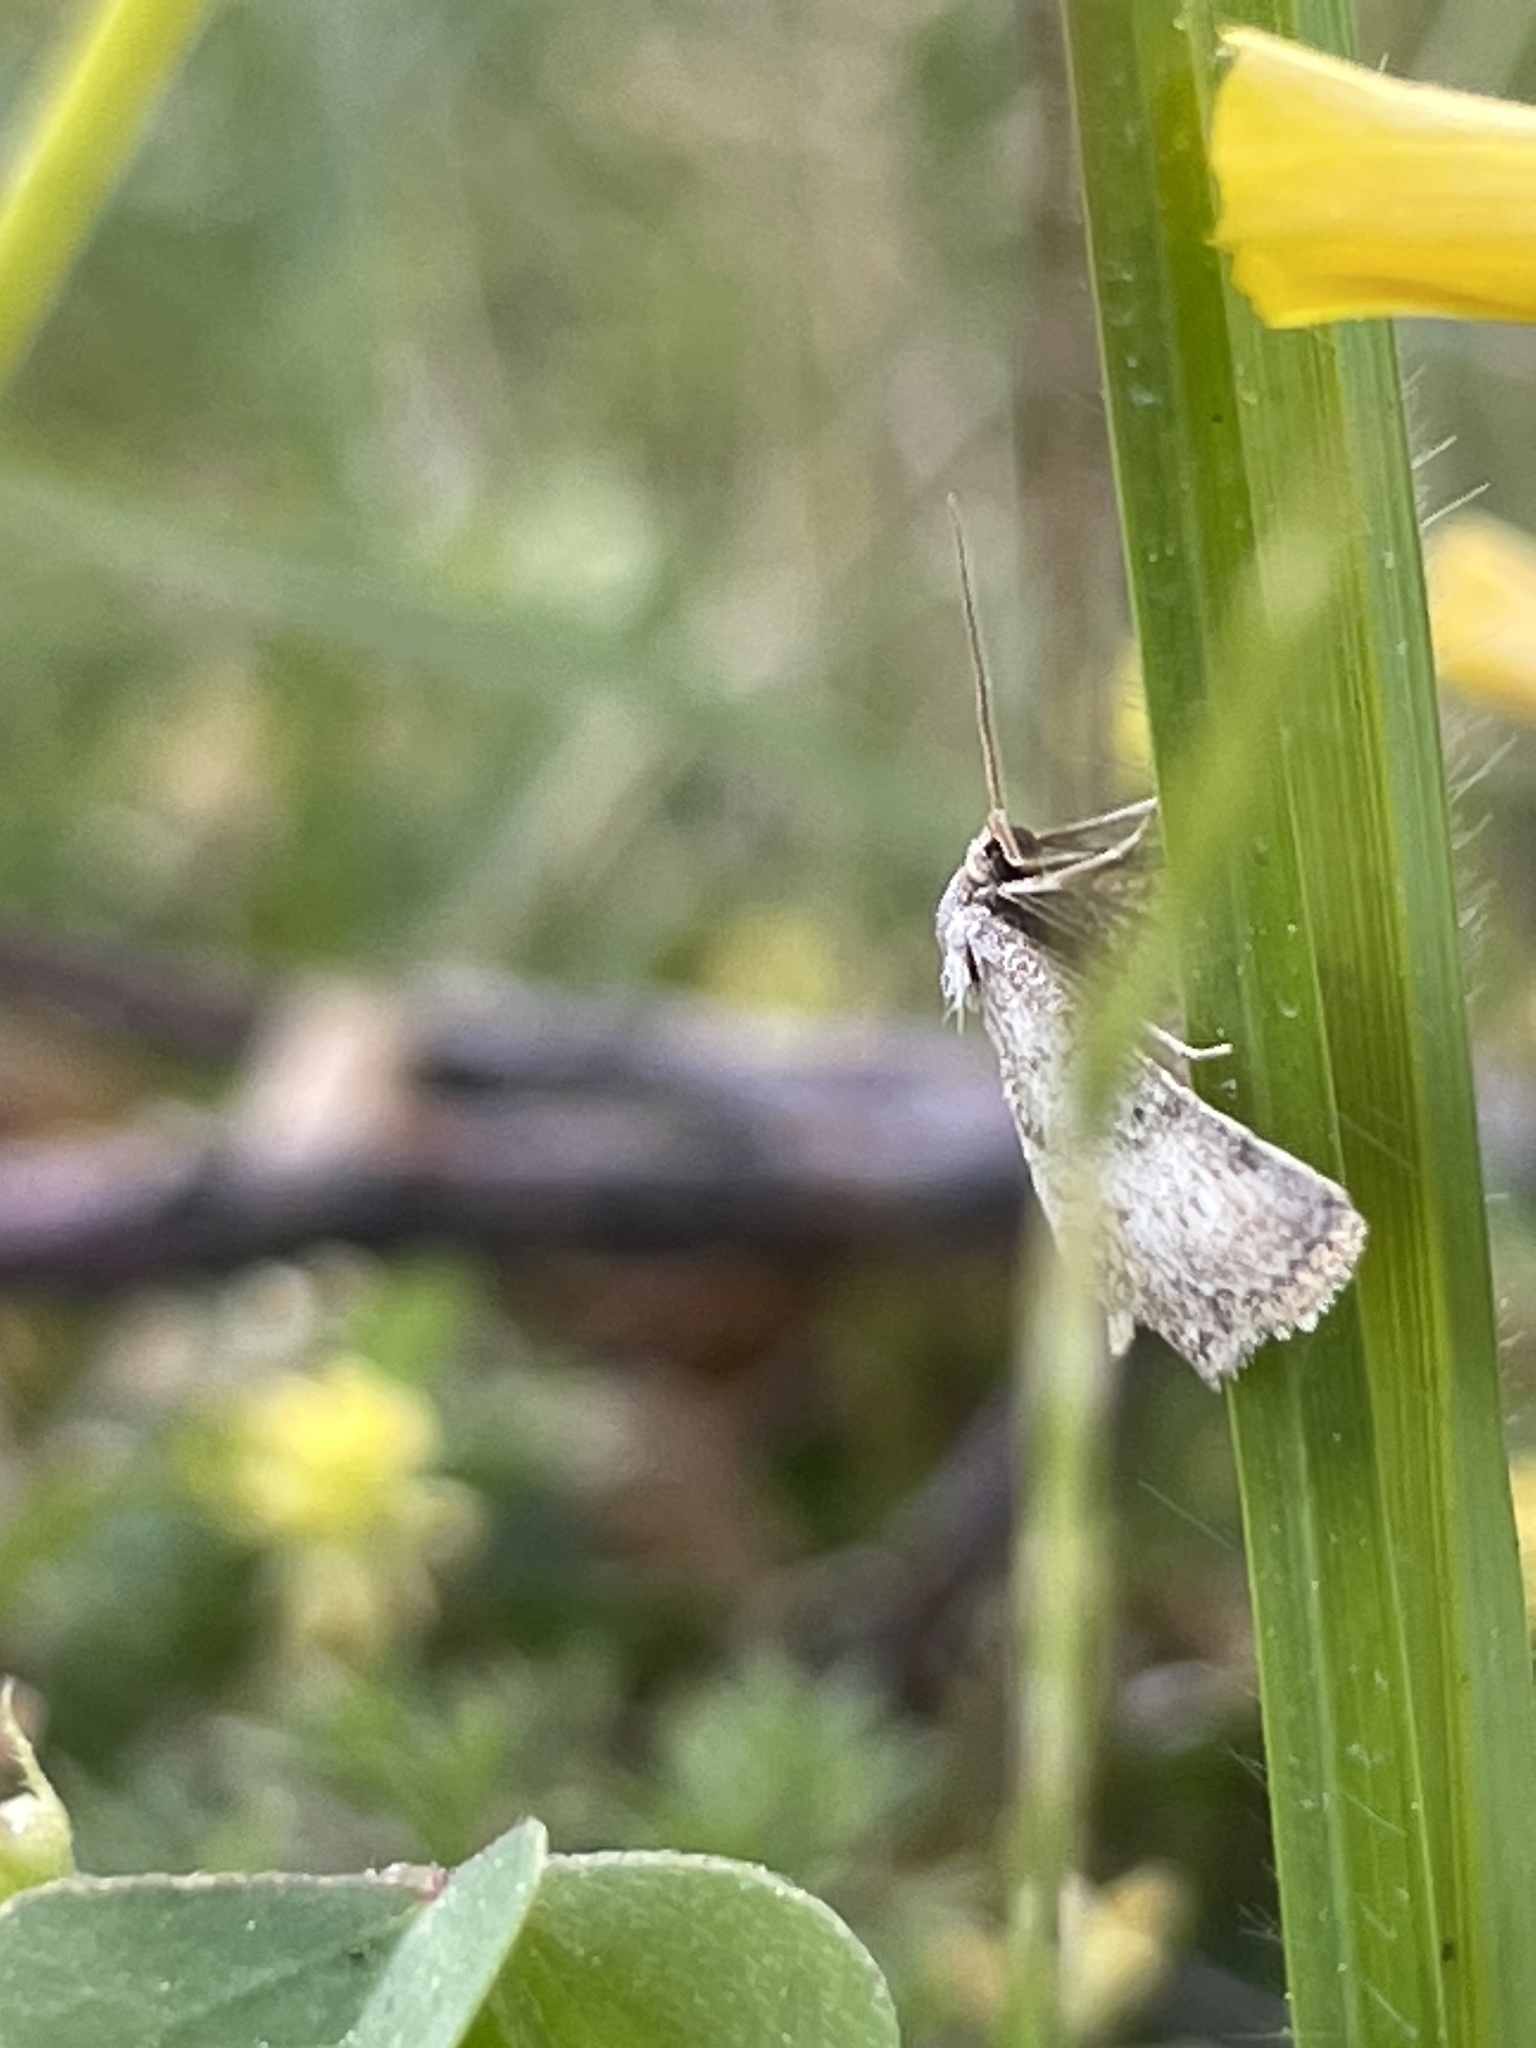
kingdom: Animalia
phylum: Arthropoda
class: Insecta
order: Lepidoptera
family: Geometridae
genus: Lobocleta
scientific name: Lobocleta ossularia
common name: Drab brown wave
